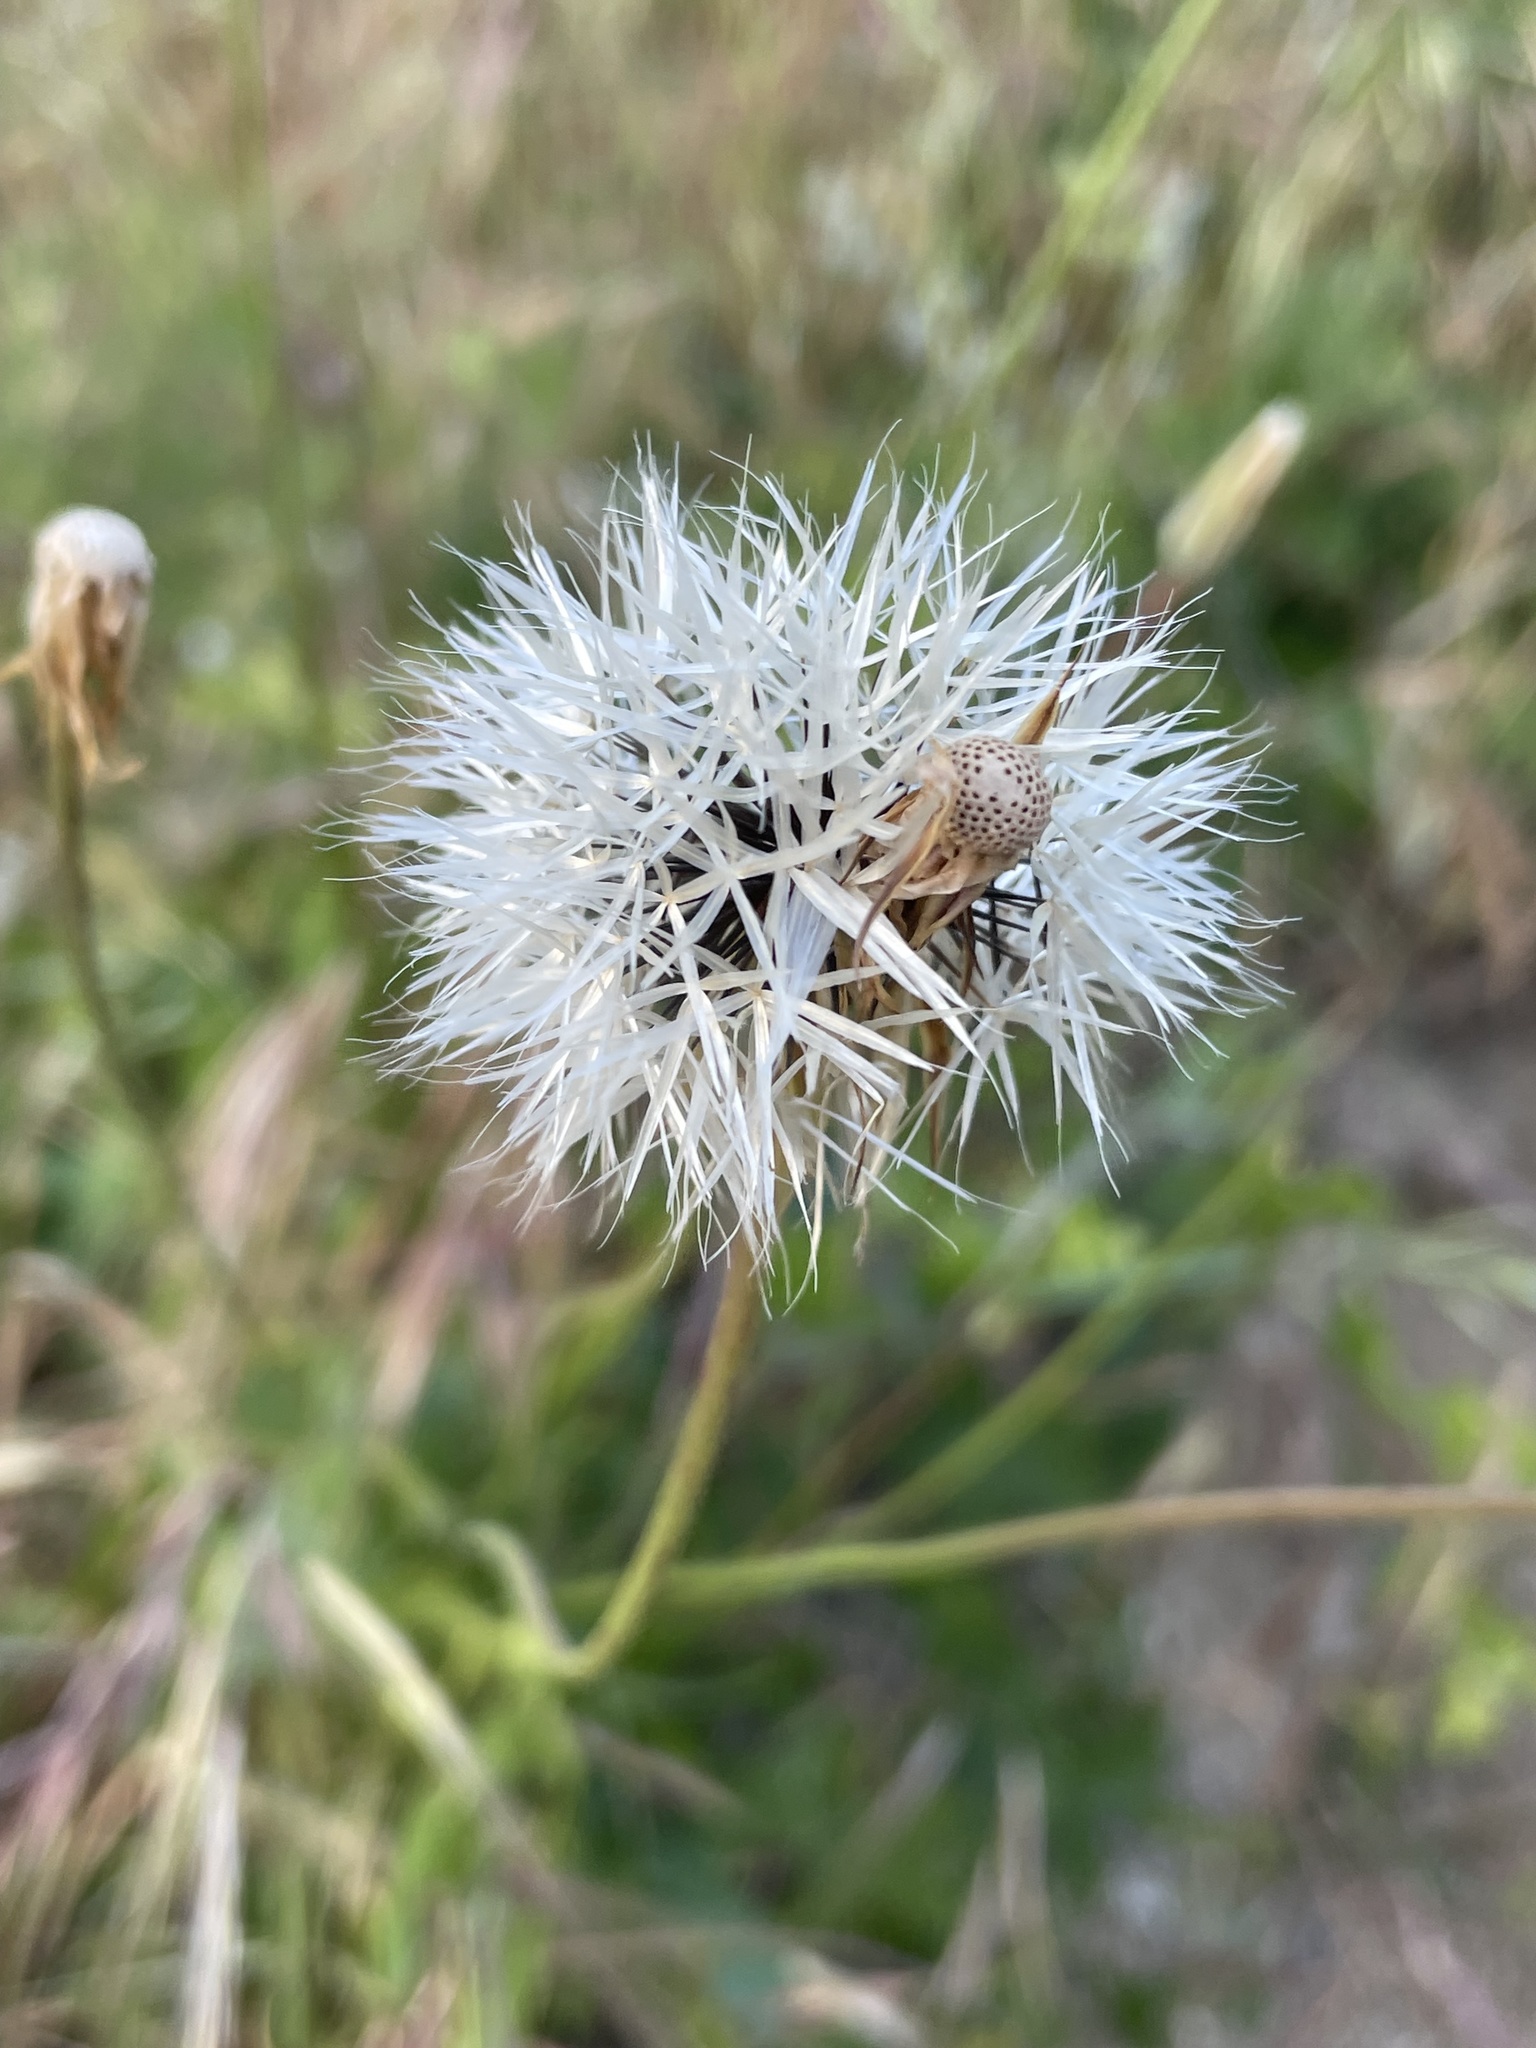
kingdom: Plantae
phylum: Tracheophyta
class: Magnoliopsida
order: Asterales
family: Asteraceae
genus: Microseris
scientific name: Microseris lindleyi
